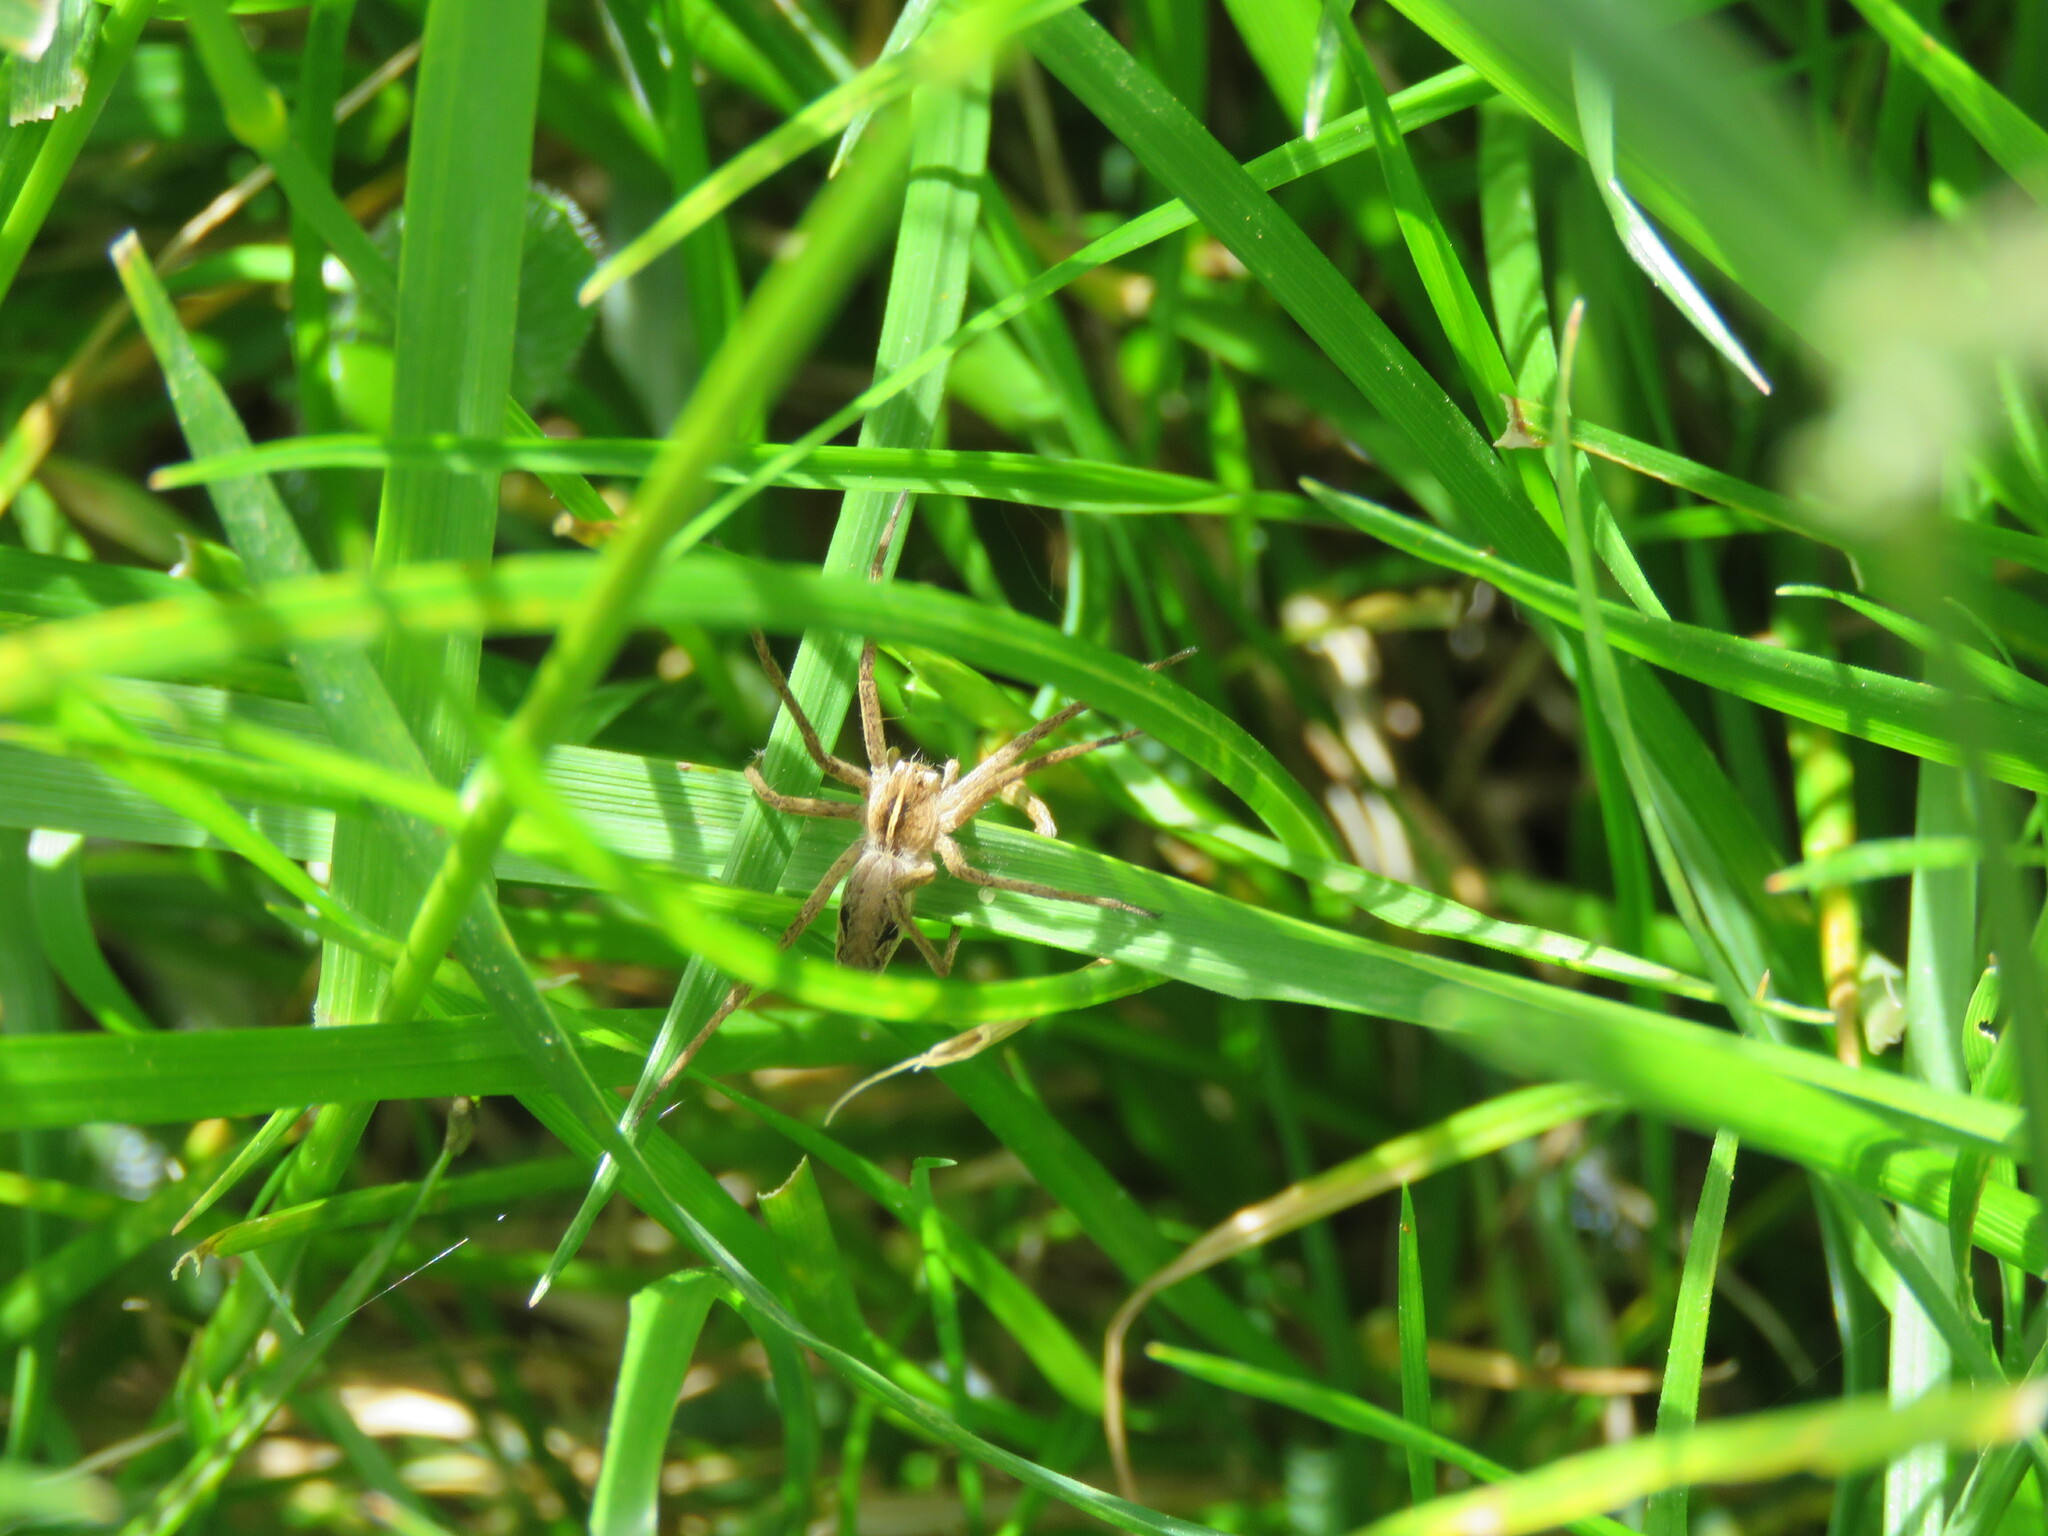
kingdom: Animalia
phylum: Arthropoda
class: Arachnida
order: Araneae
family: Pisauridae
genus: Pisaura
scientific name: Pisaura mirabilis
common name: Tent spider
